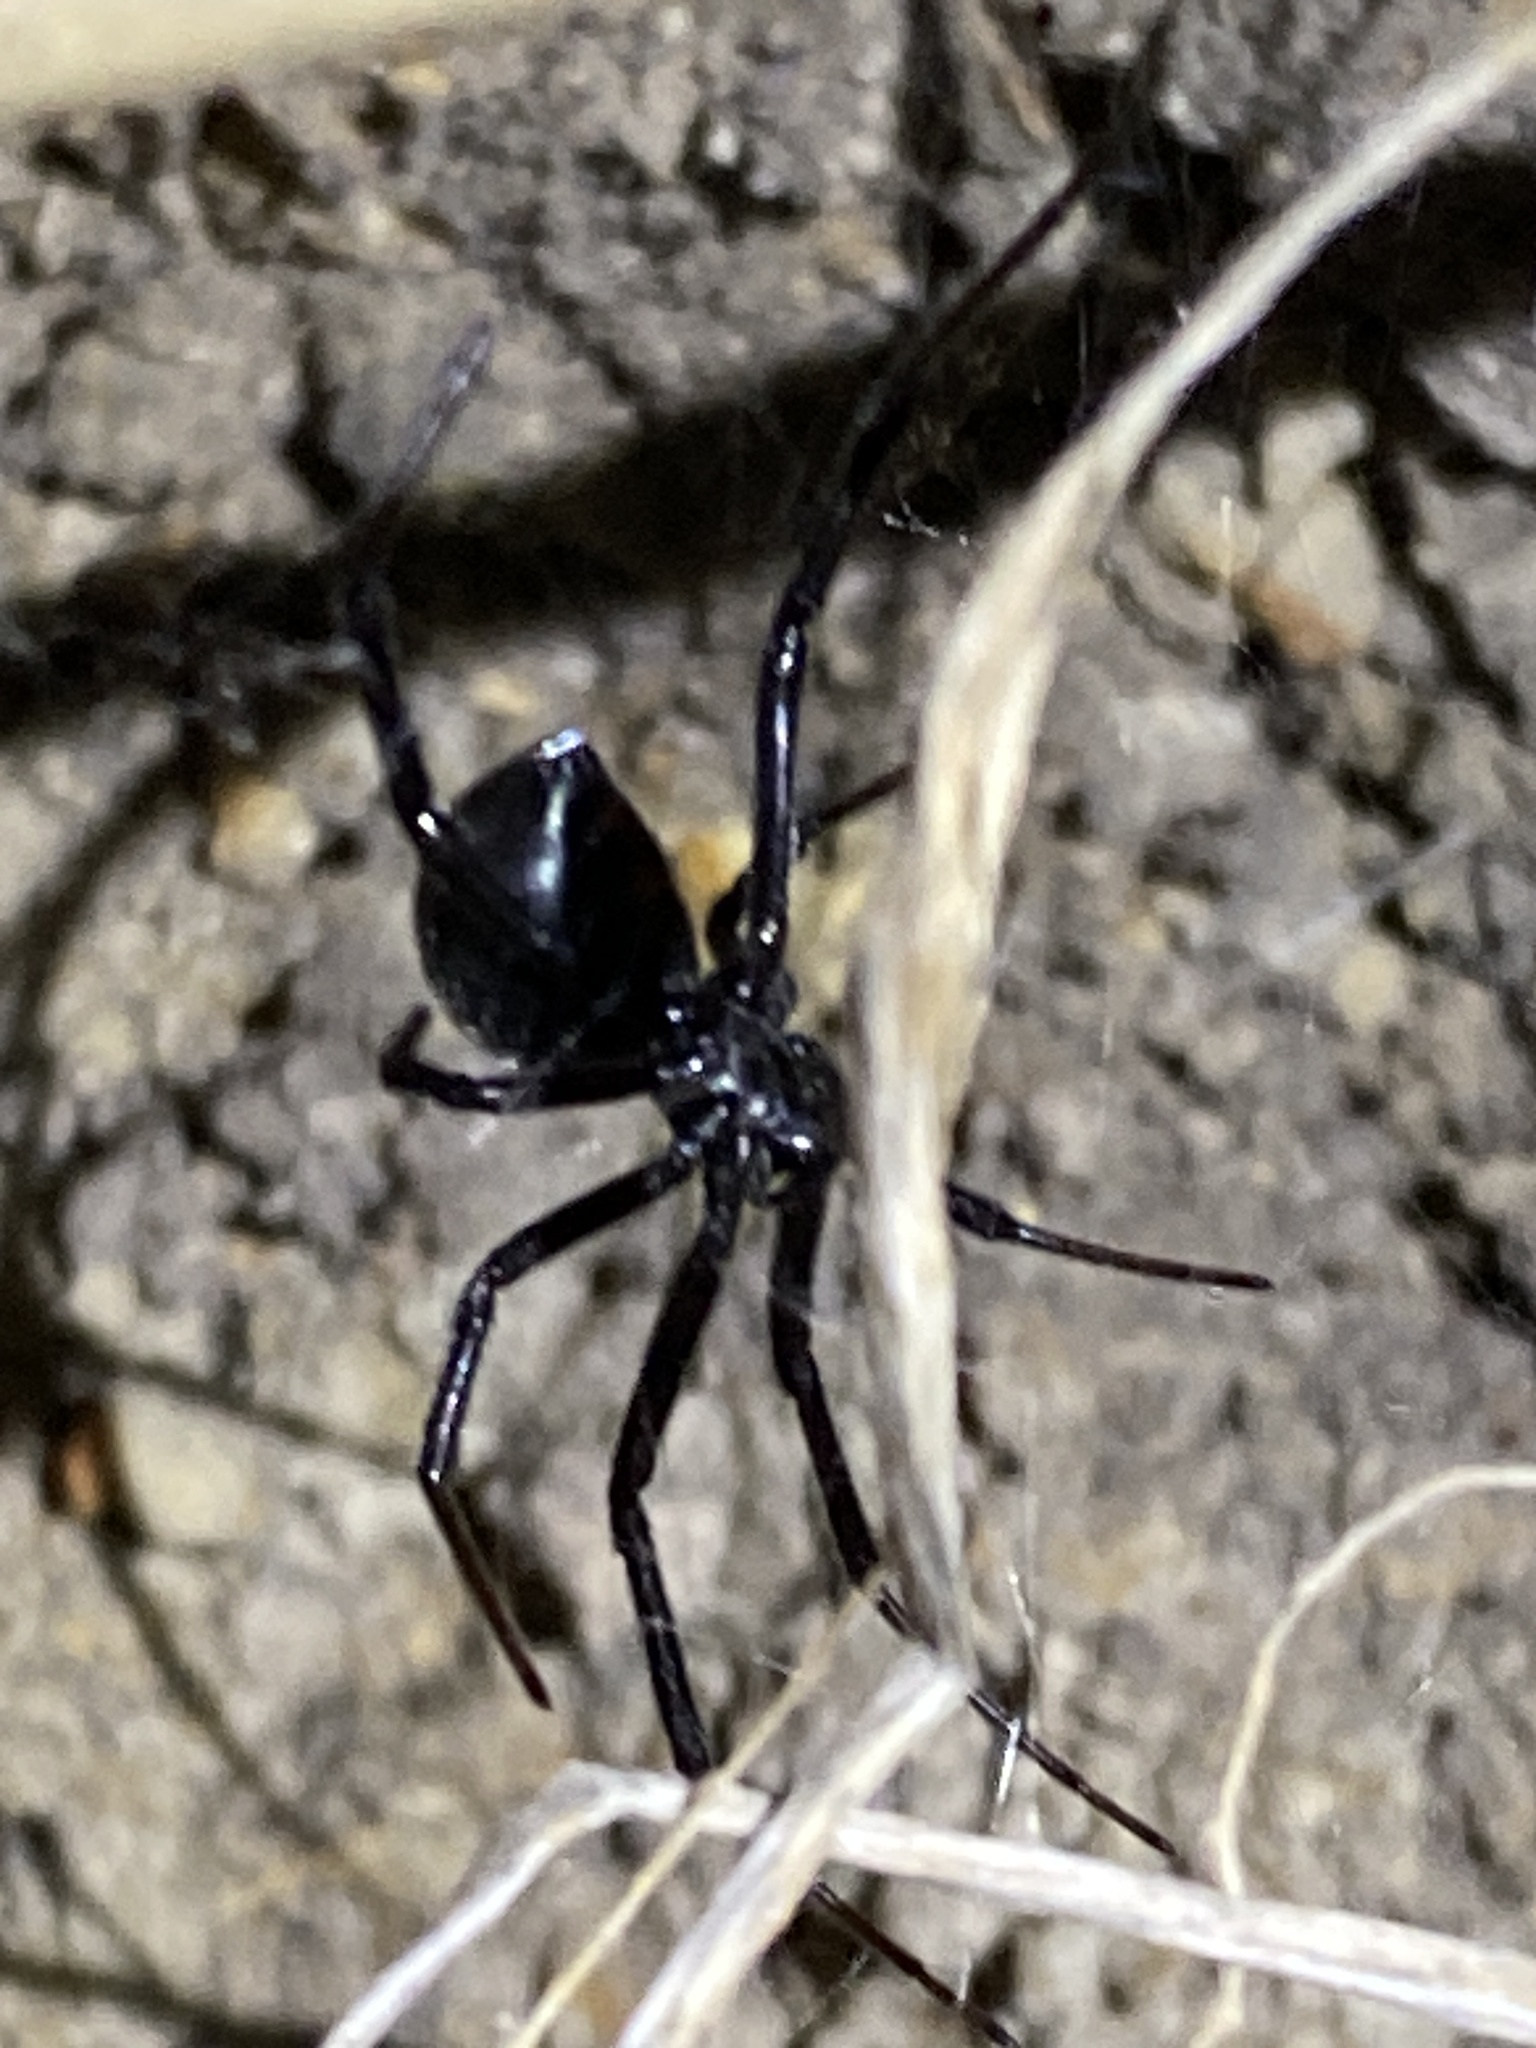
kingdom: Animalia
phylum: Arthropoda
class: Arachnida
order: Araneae
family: Theridiidae
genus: Latrodectus
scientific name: Latrodectus hesperus
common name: Western black widow
